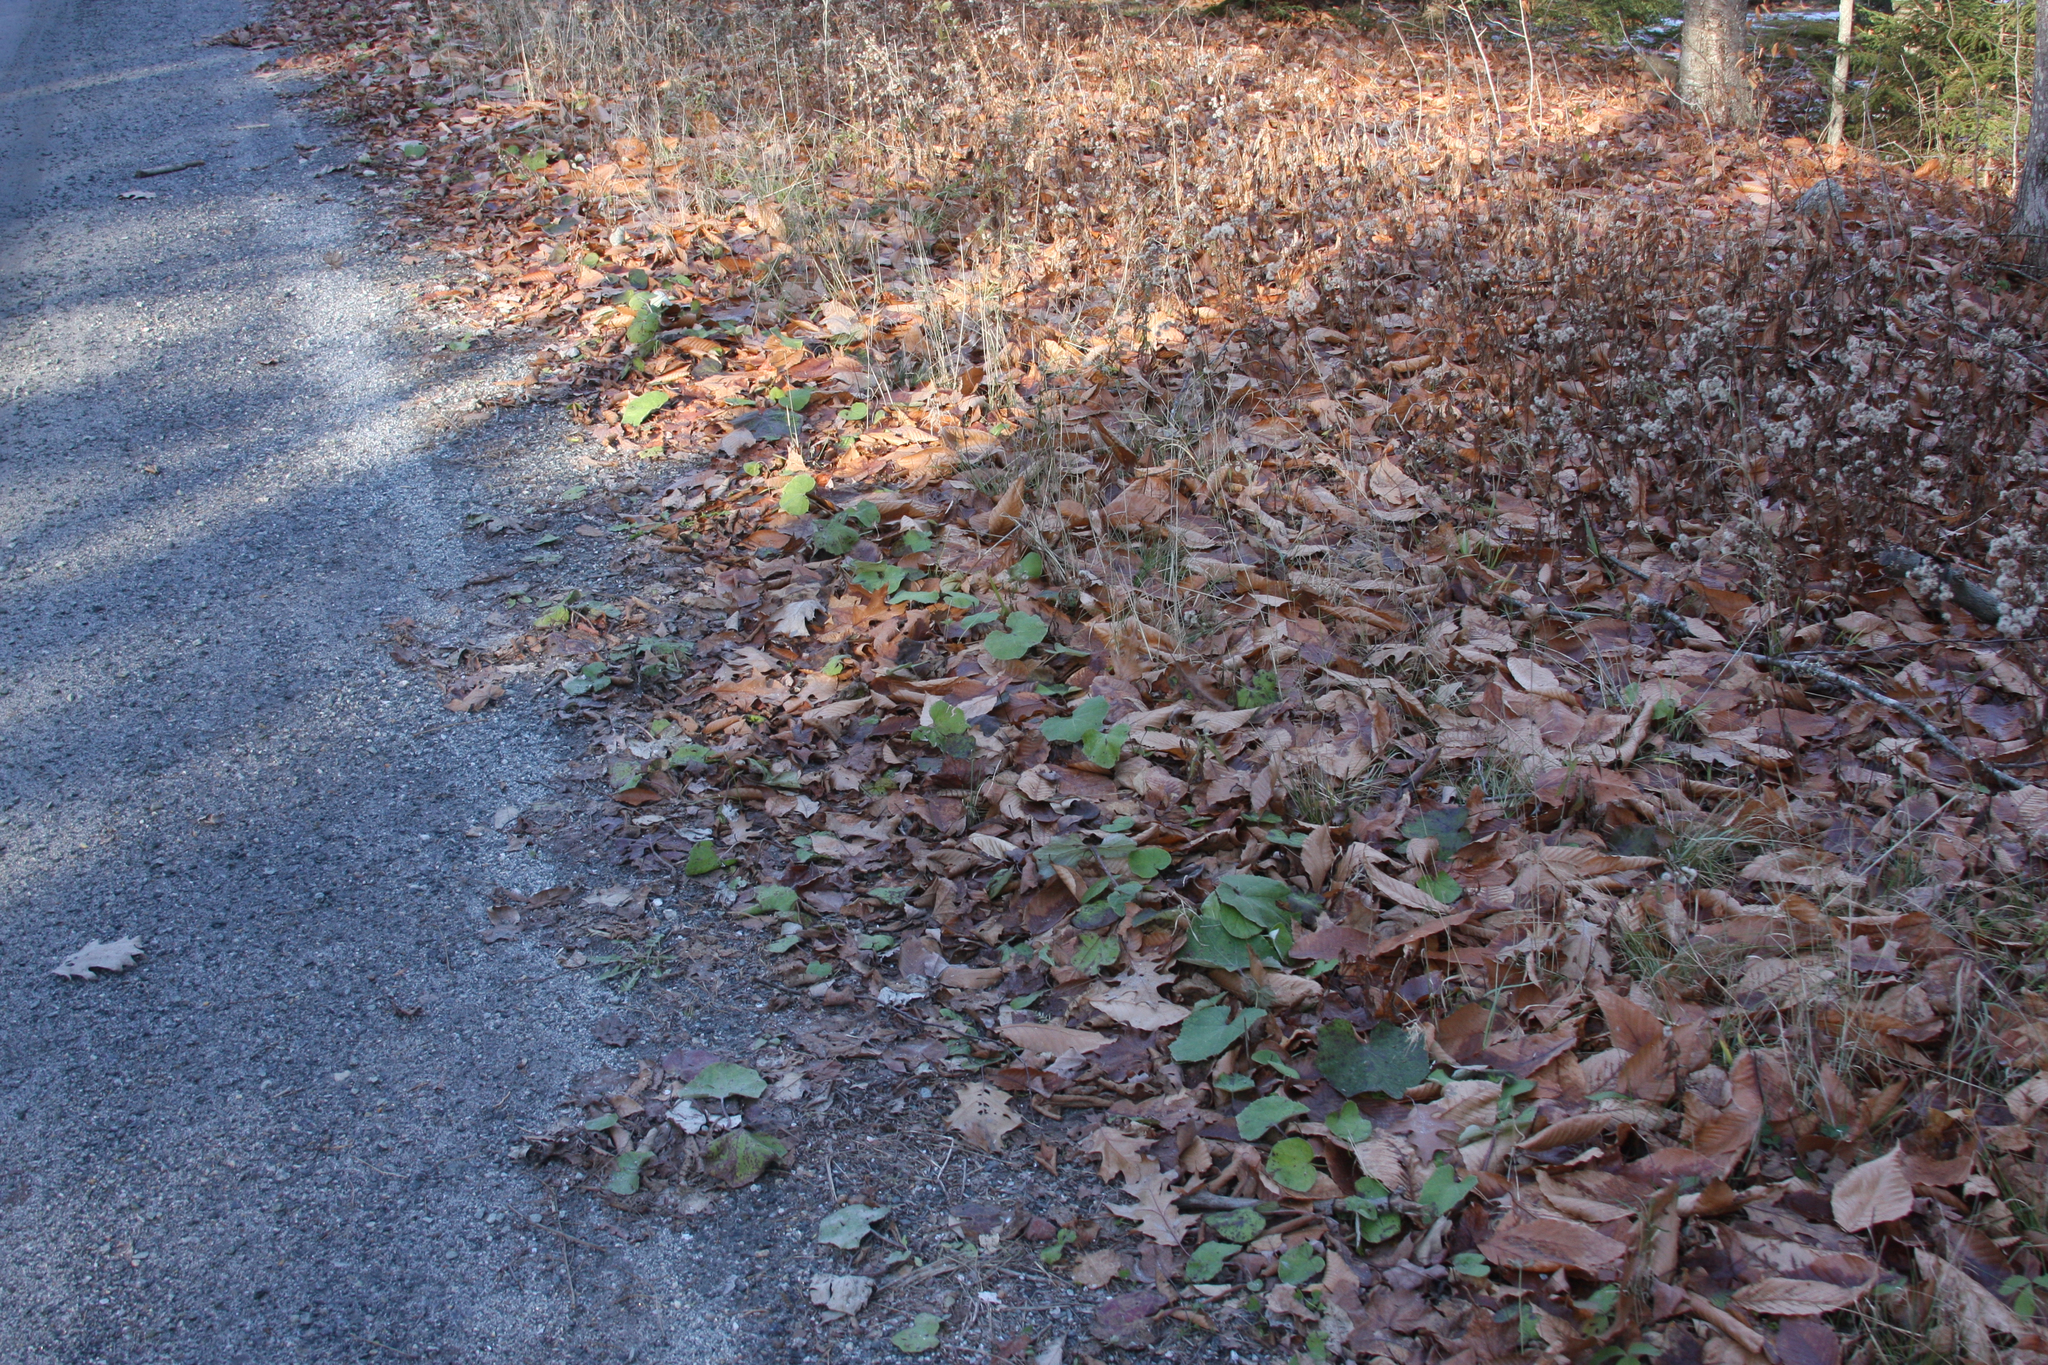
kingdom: Plantae
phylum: Tracheophyta
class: Magnoliopsida
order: Asterales
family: Asteraceae
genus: Tussilago
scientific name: Tussilago farfara
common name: Coltsfoot
